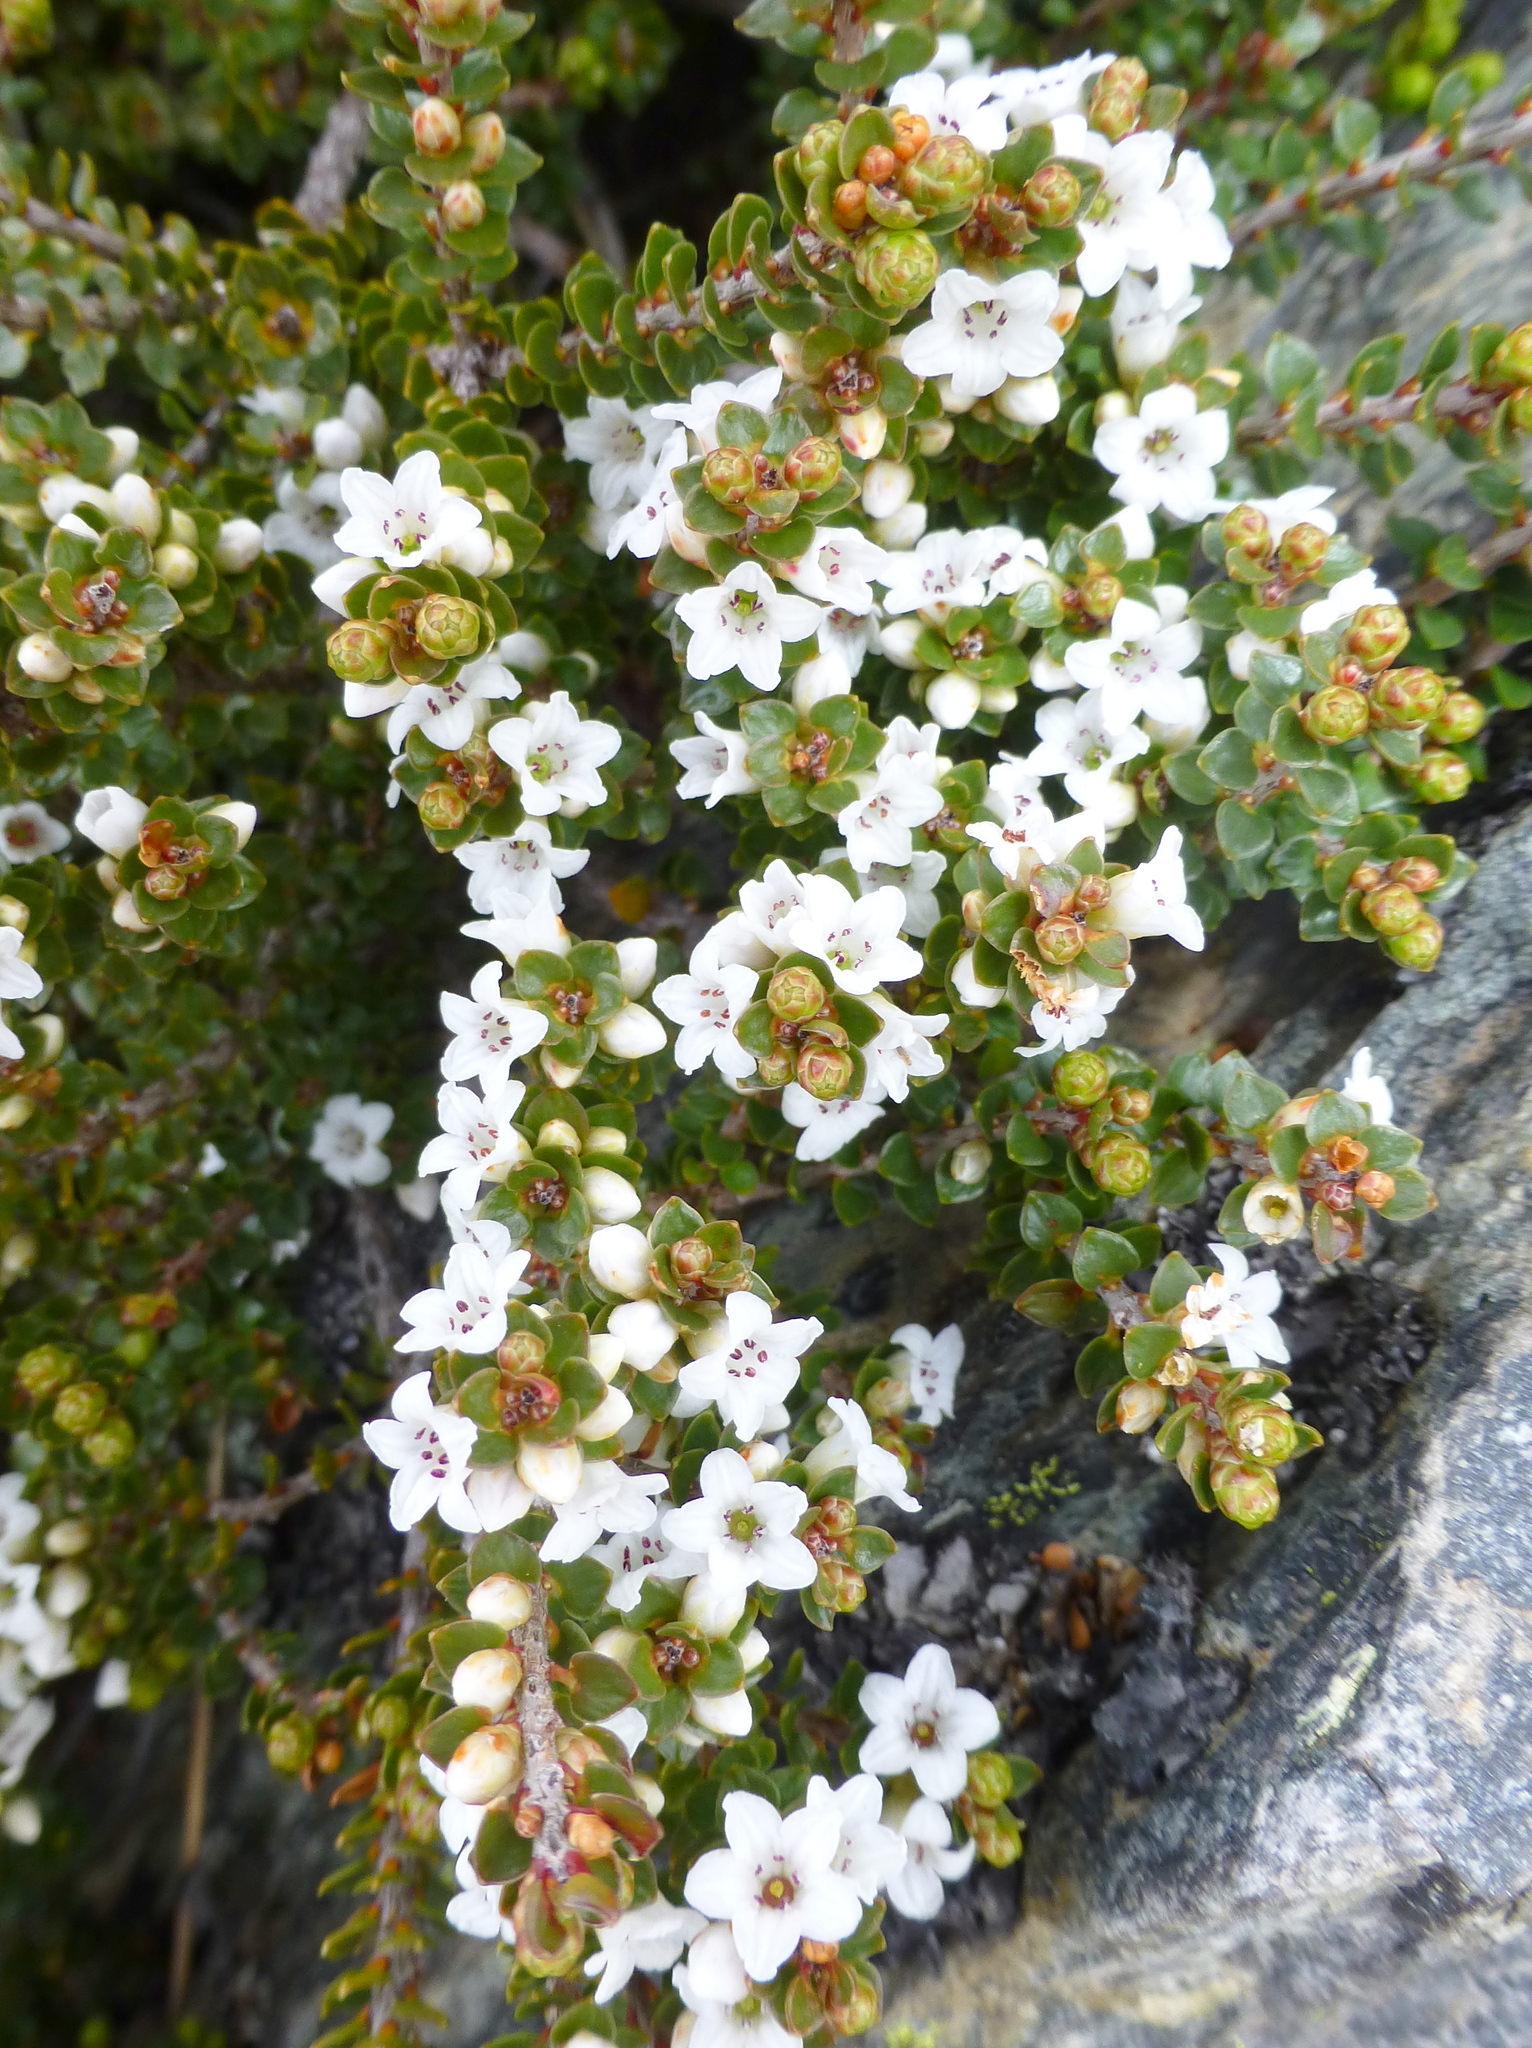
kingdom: Plantae
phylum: Tracheophyta
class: Magnoliopsida
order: Ericales
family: Ericaceae
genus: Epacris
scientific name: Epacris microphylla
